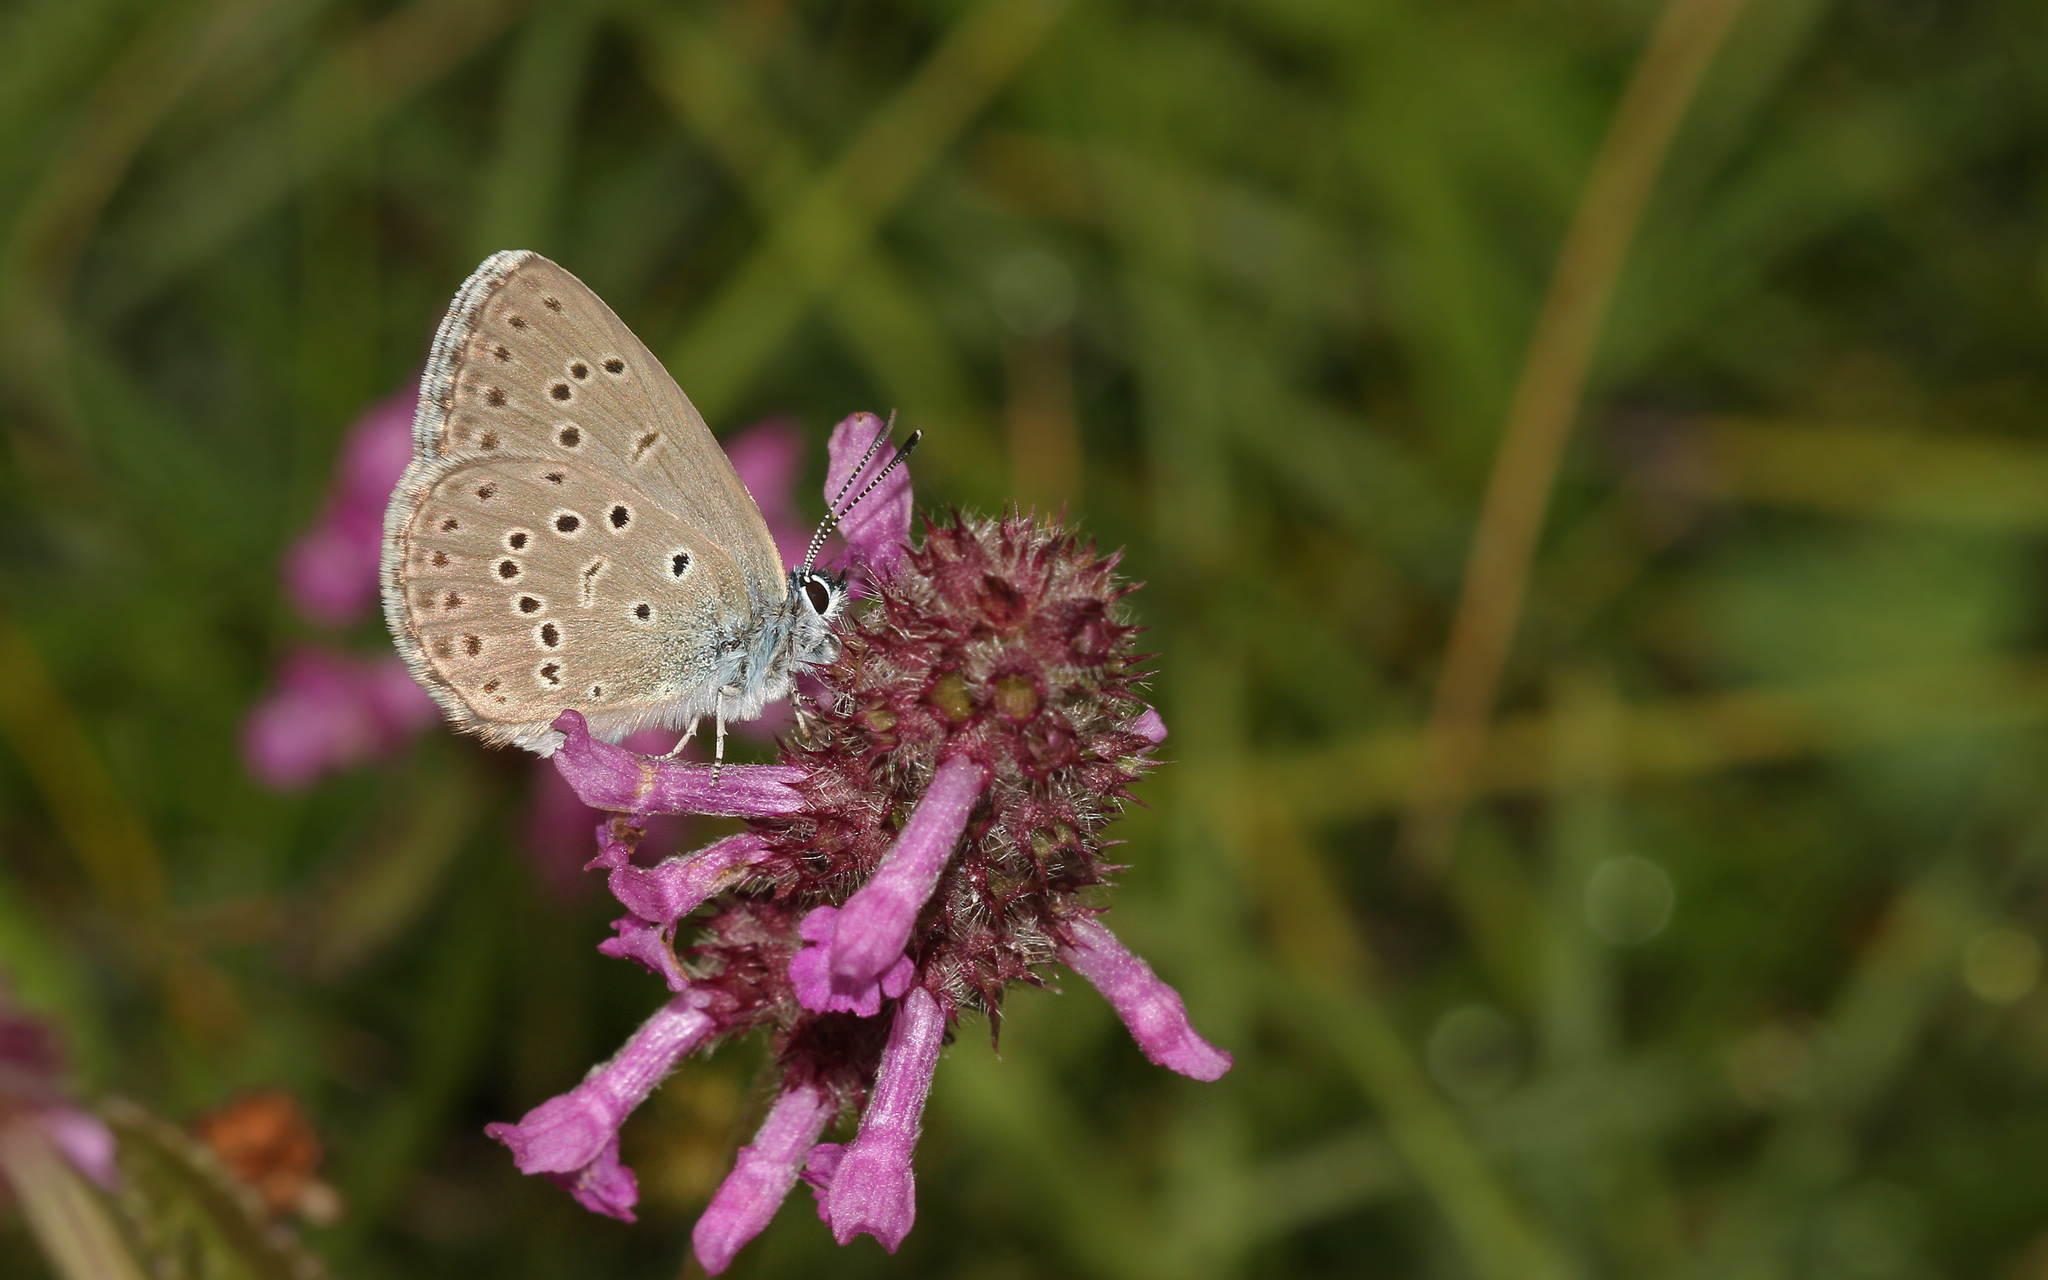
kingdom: Animalia
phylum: Arthropoda
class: Insecta
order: Lepidoptera
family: Lycaenidae
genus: Maculinea
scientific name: Maculinea alcon
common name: Alcon blue
